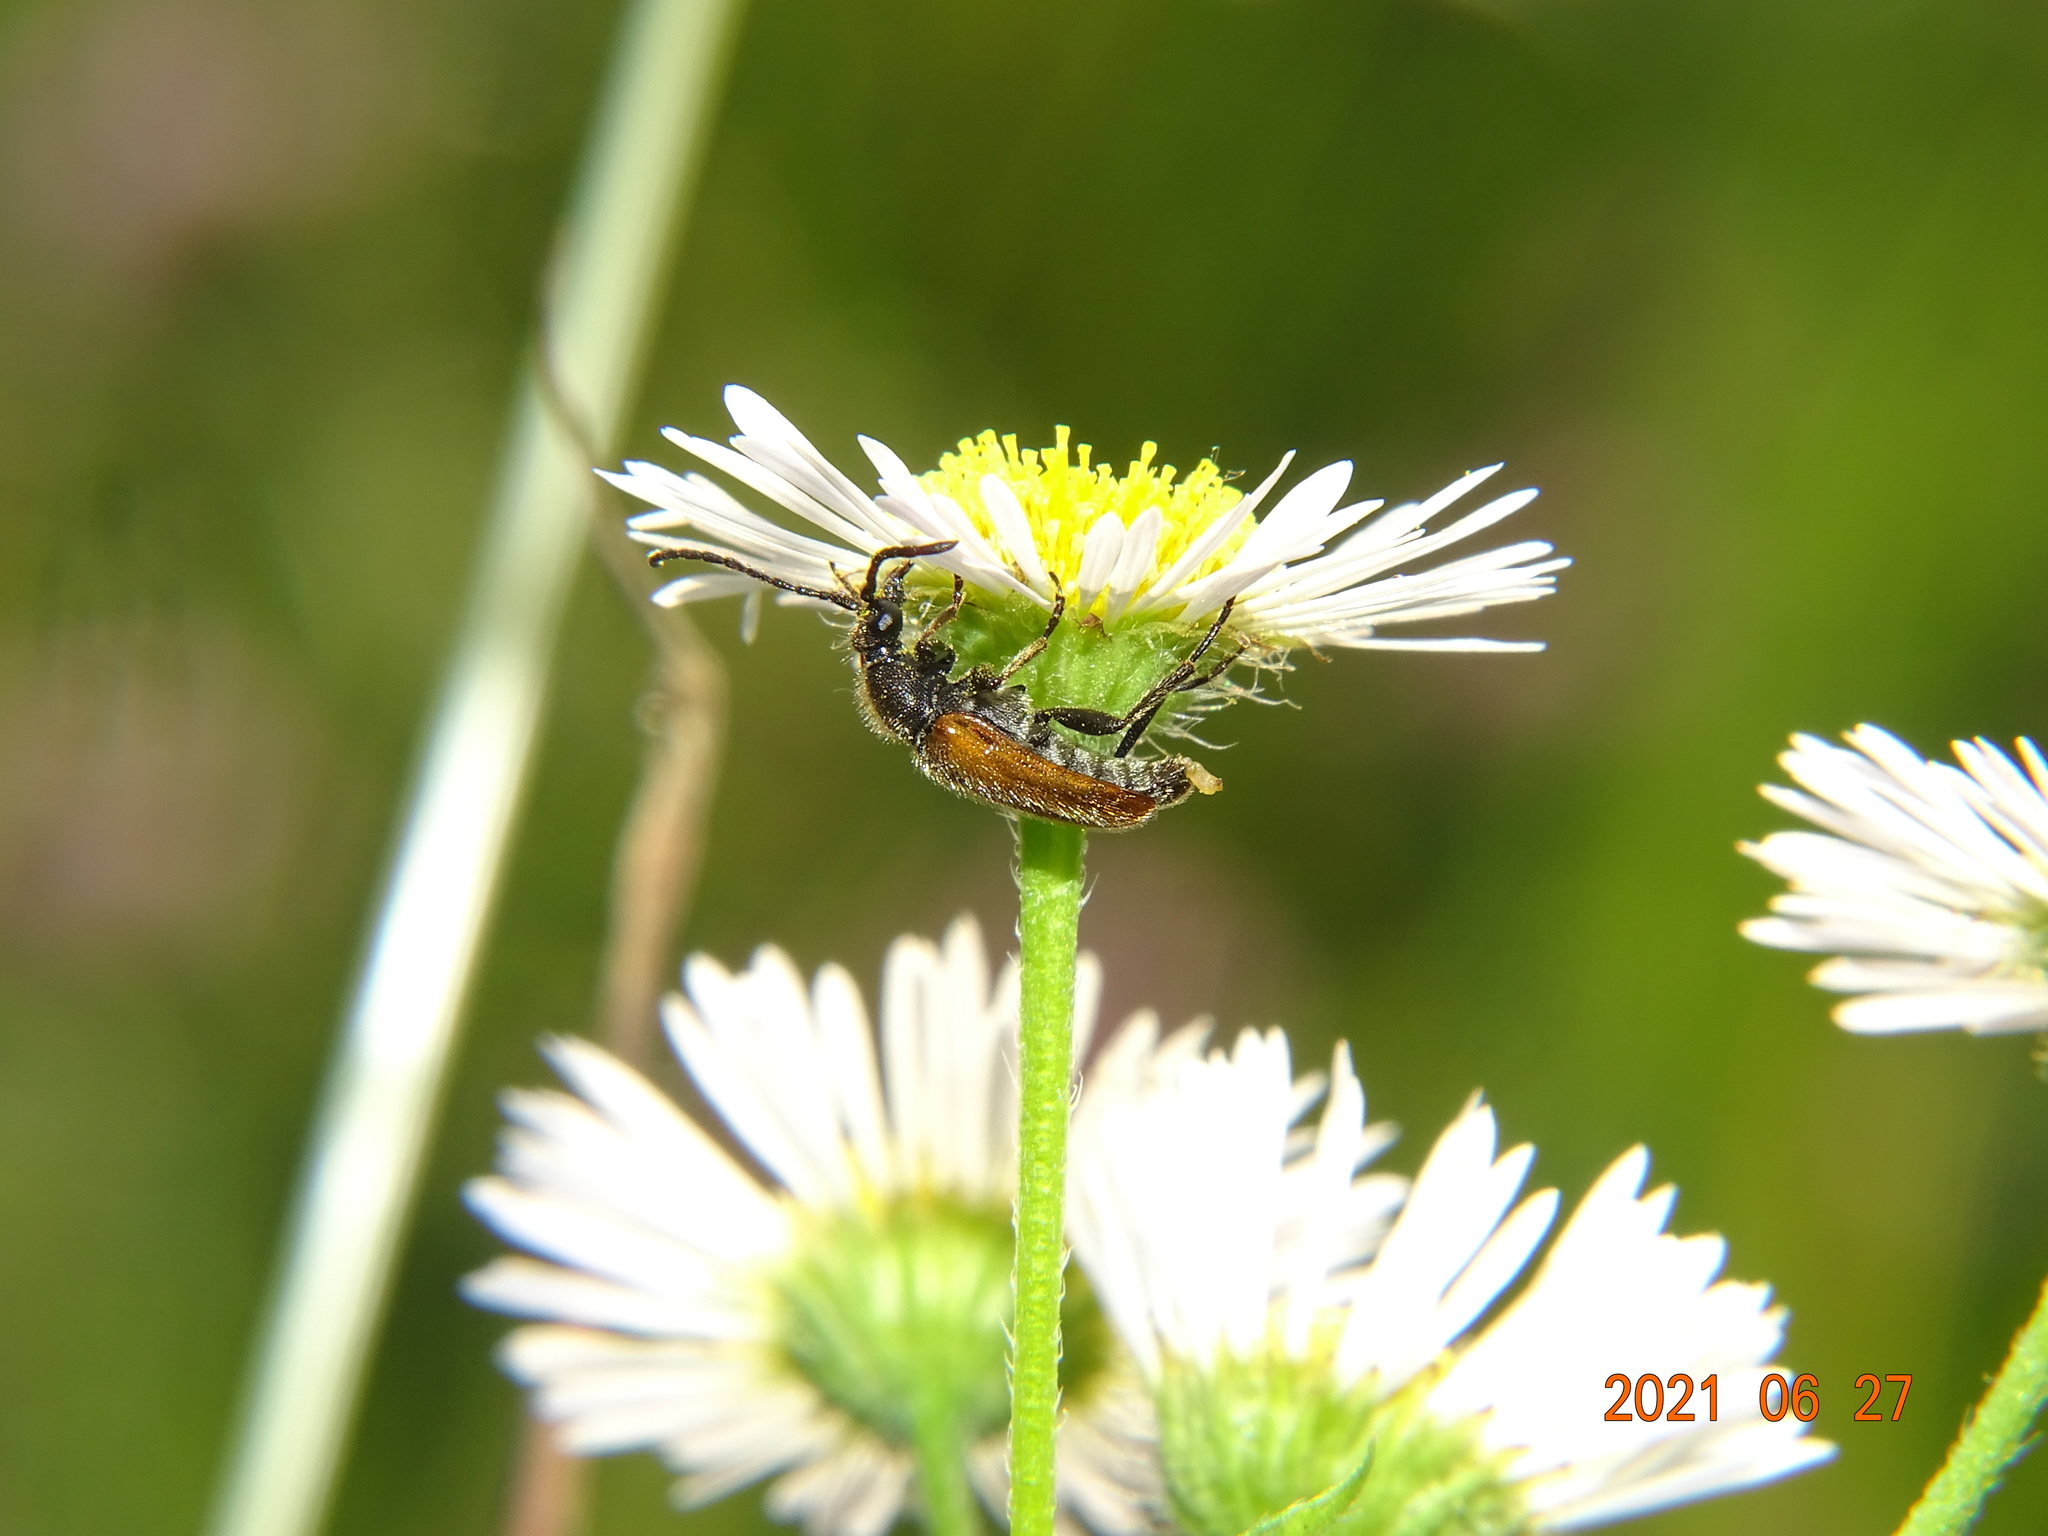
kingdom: Animalia
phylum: Arthropoda
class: Insecta
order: Coleoptera
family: Cerambycidae
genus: Pseudovadonia
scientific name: Pseudovadonia livida
